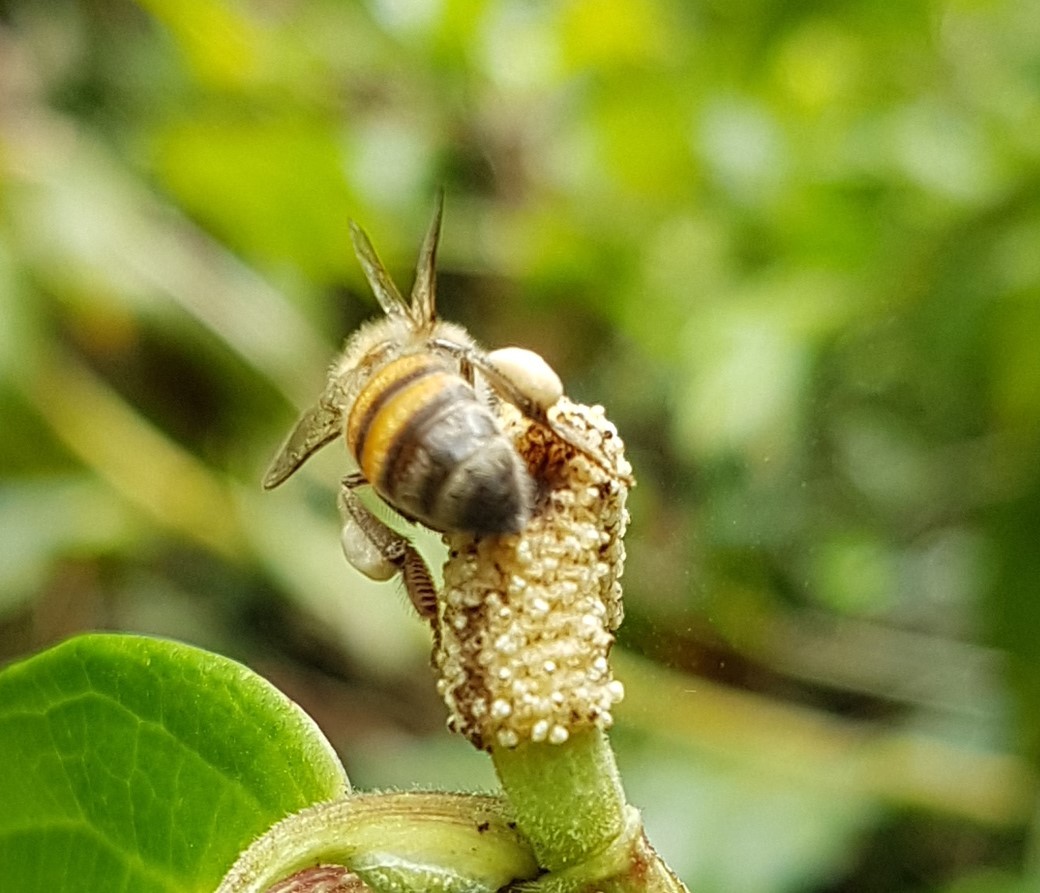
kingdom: Animalia
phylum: Arthropoda
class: Insecta
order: Hymenoptera
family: Apidae
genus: Apis
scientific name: Apis mellifera
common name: Honey bee
